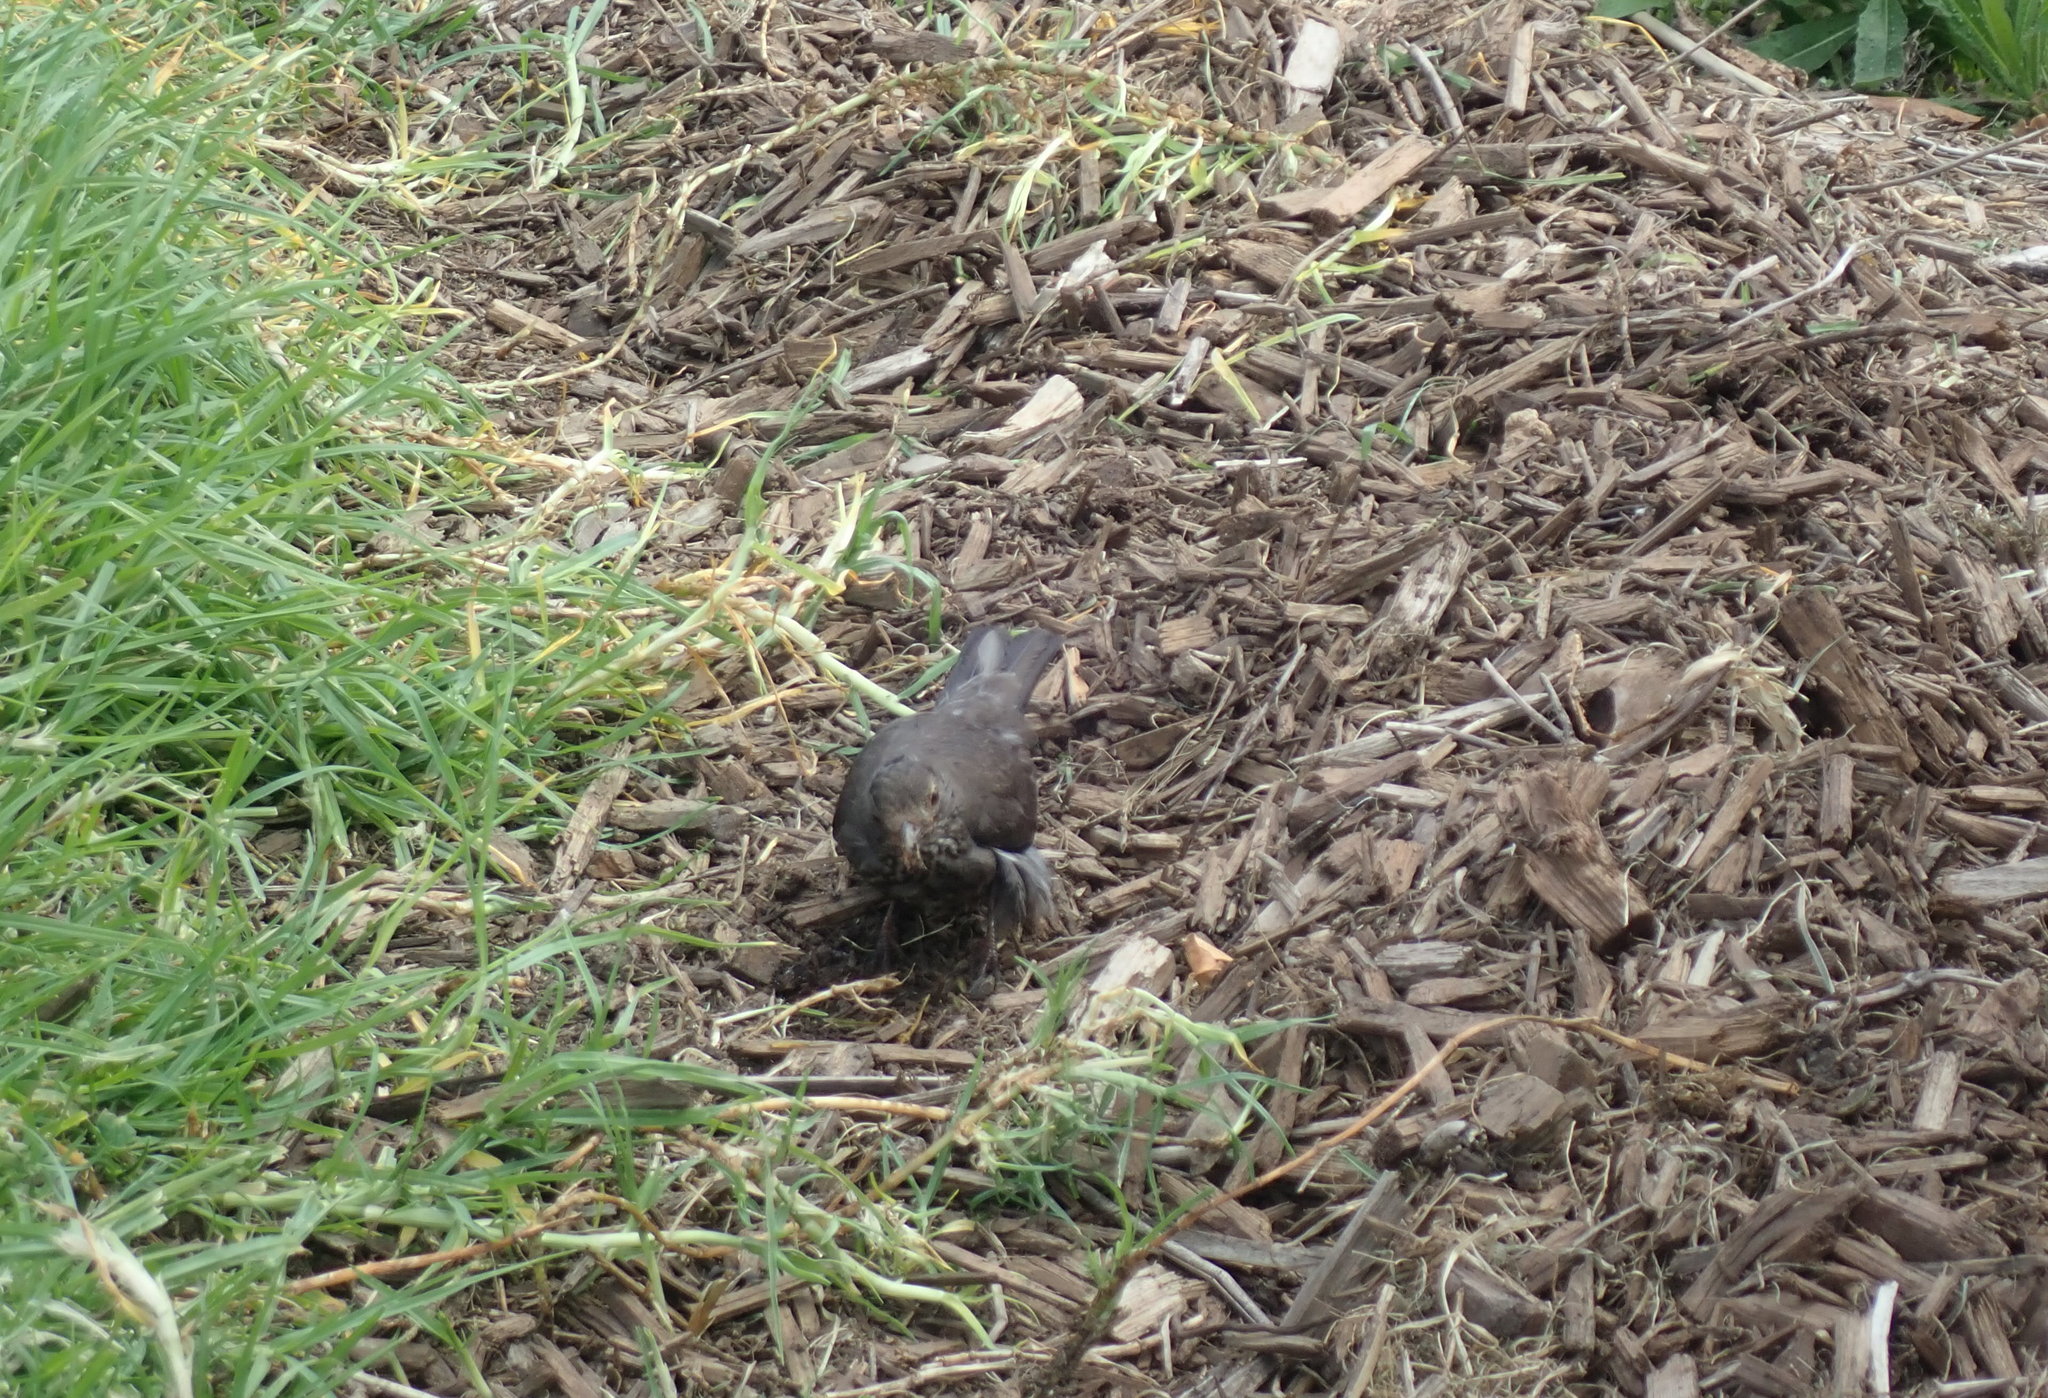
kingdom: Animalia
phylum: Chordata
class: Aves
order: Passeriformes
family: Turdidae
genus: Turdus
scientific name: Turdus merula
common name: Common blackbird
